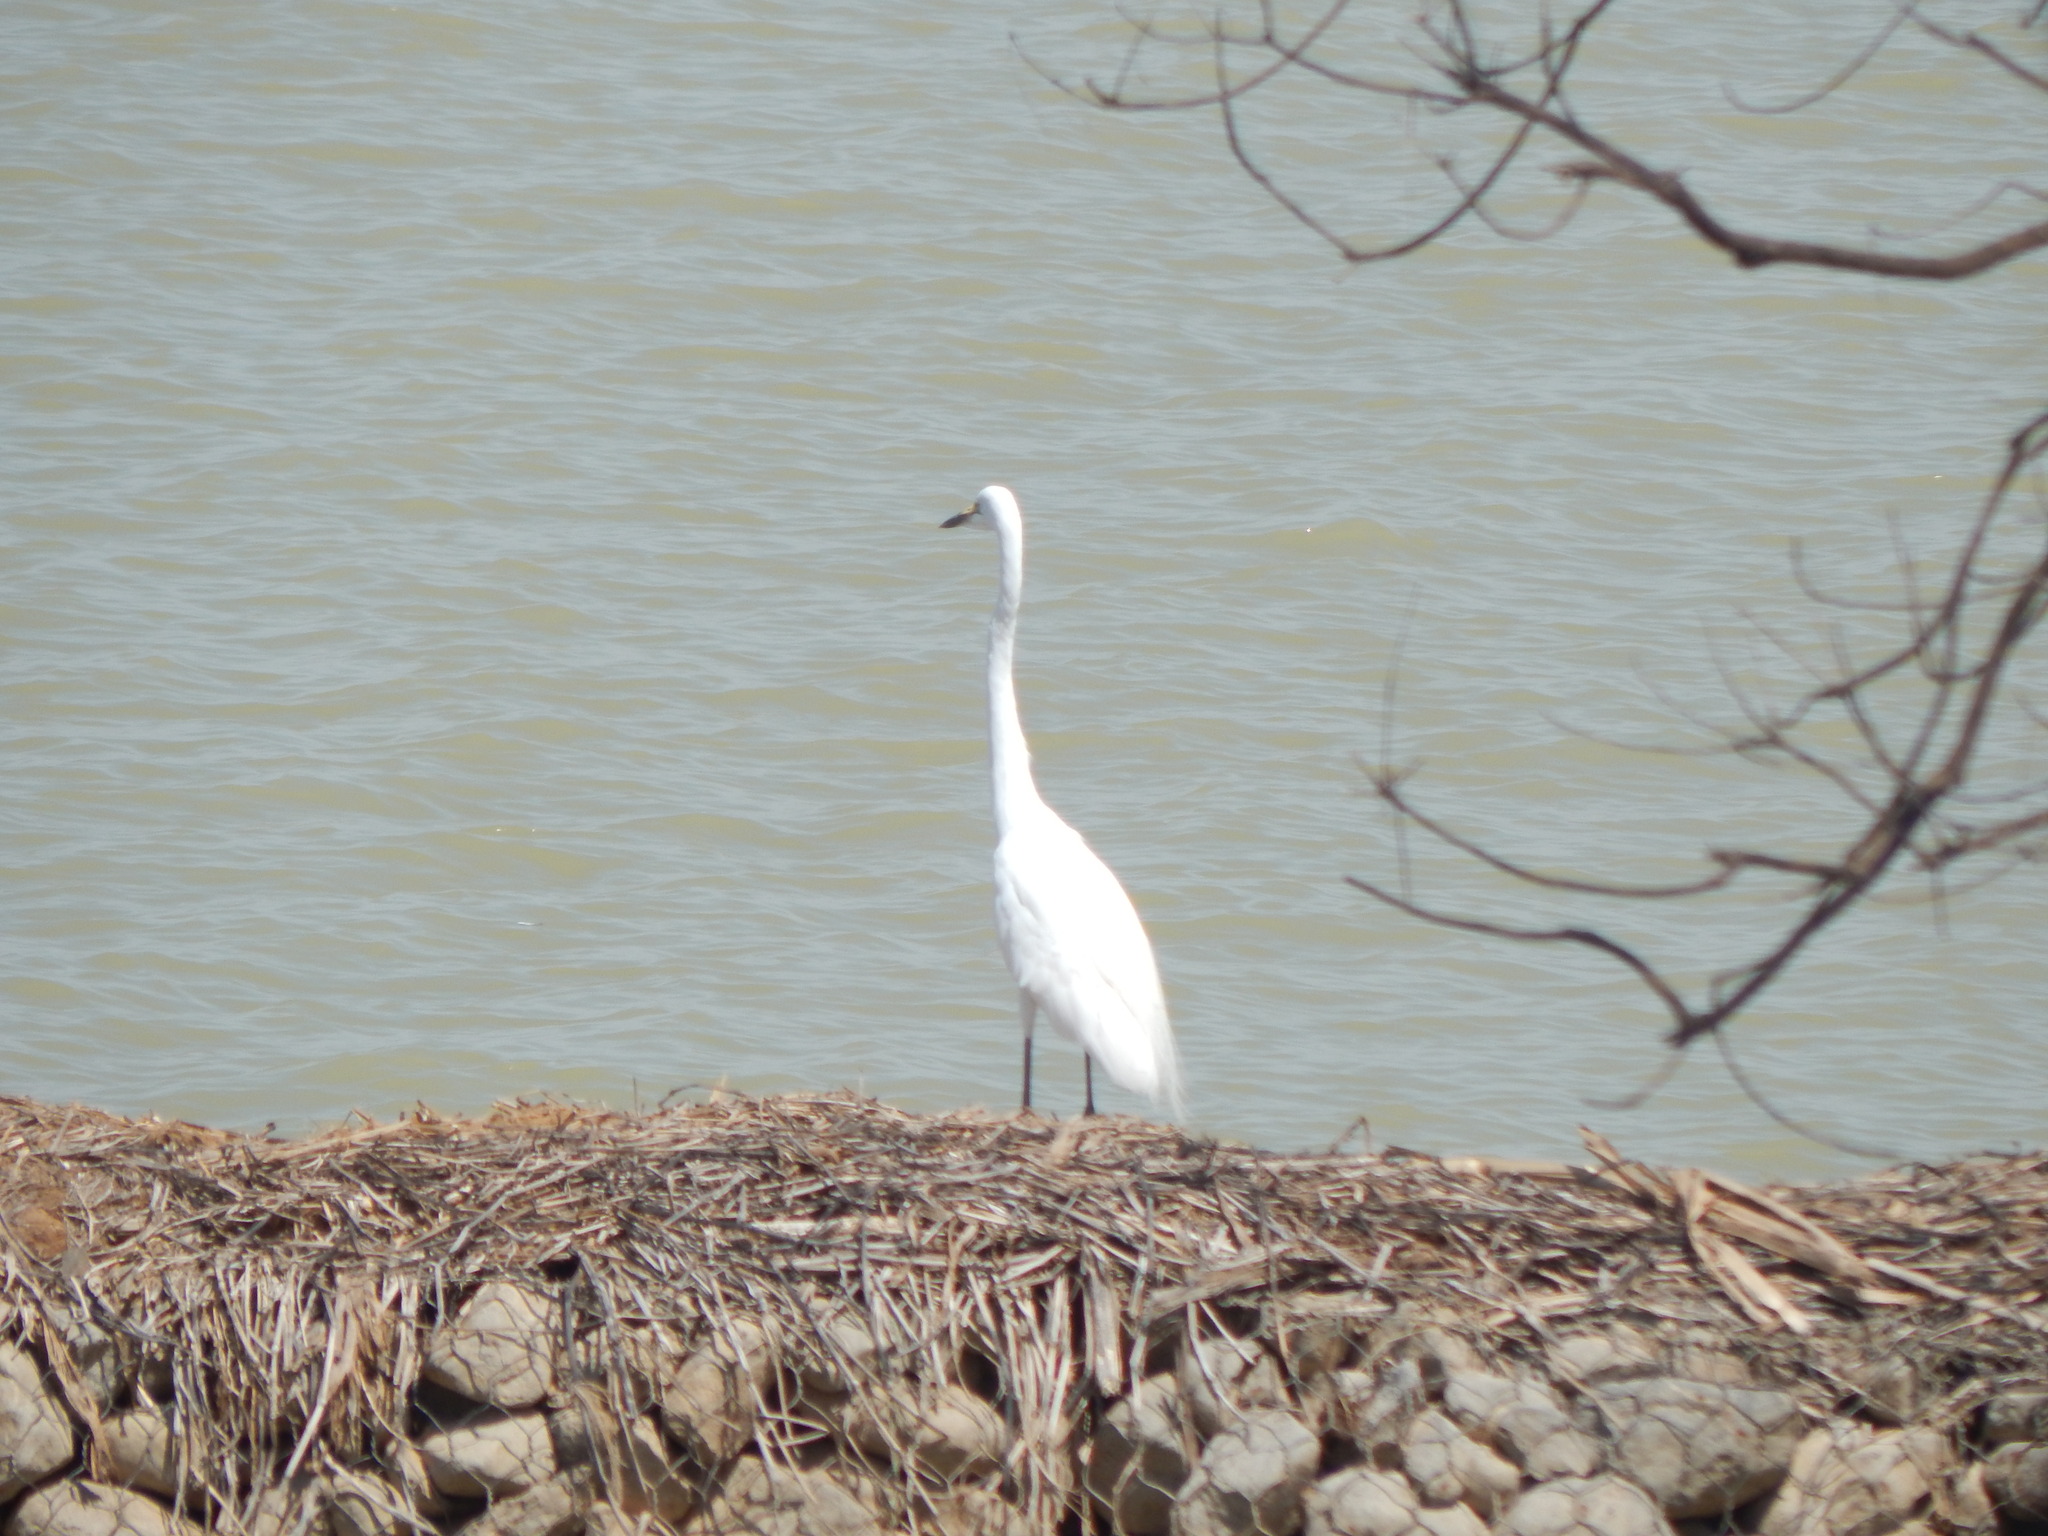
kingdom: Animalia
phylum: Chordata
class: Aves
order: Pelecaniformes
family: Ardeidae
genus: Ardea
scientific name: Ardea alba
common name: Great egret
